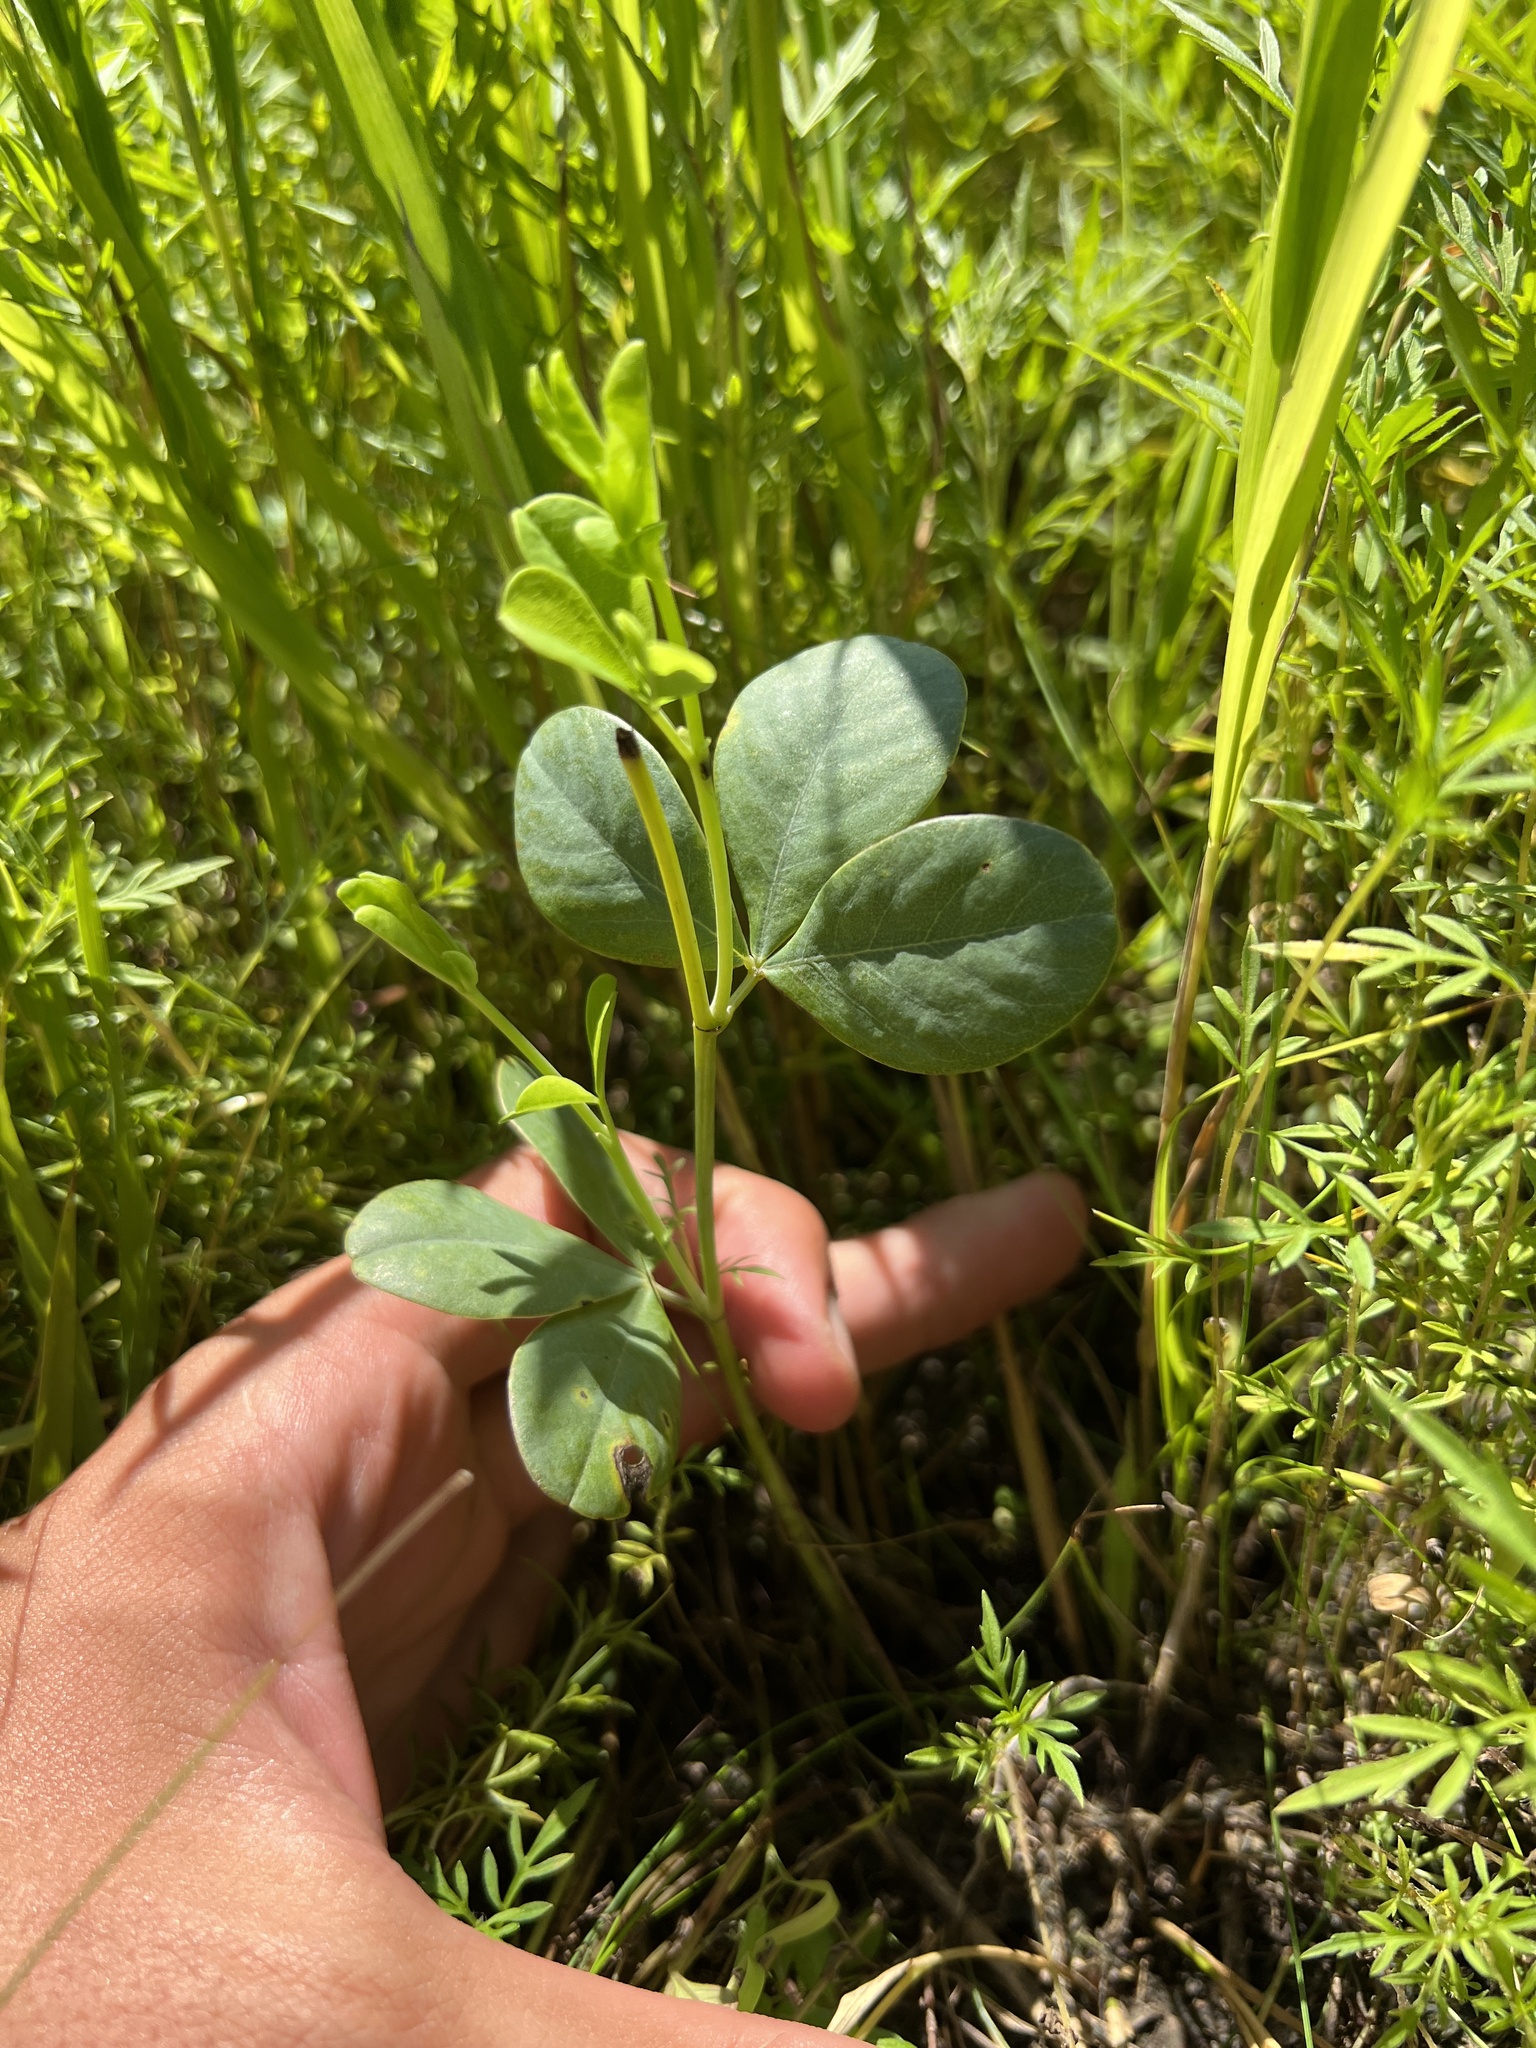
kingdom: Plantae
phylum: Tracheophyta
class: Magnoliopsida
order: Fabales
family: Fabaceae
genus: Baptisia
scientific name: Baptisia alba
